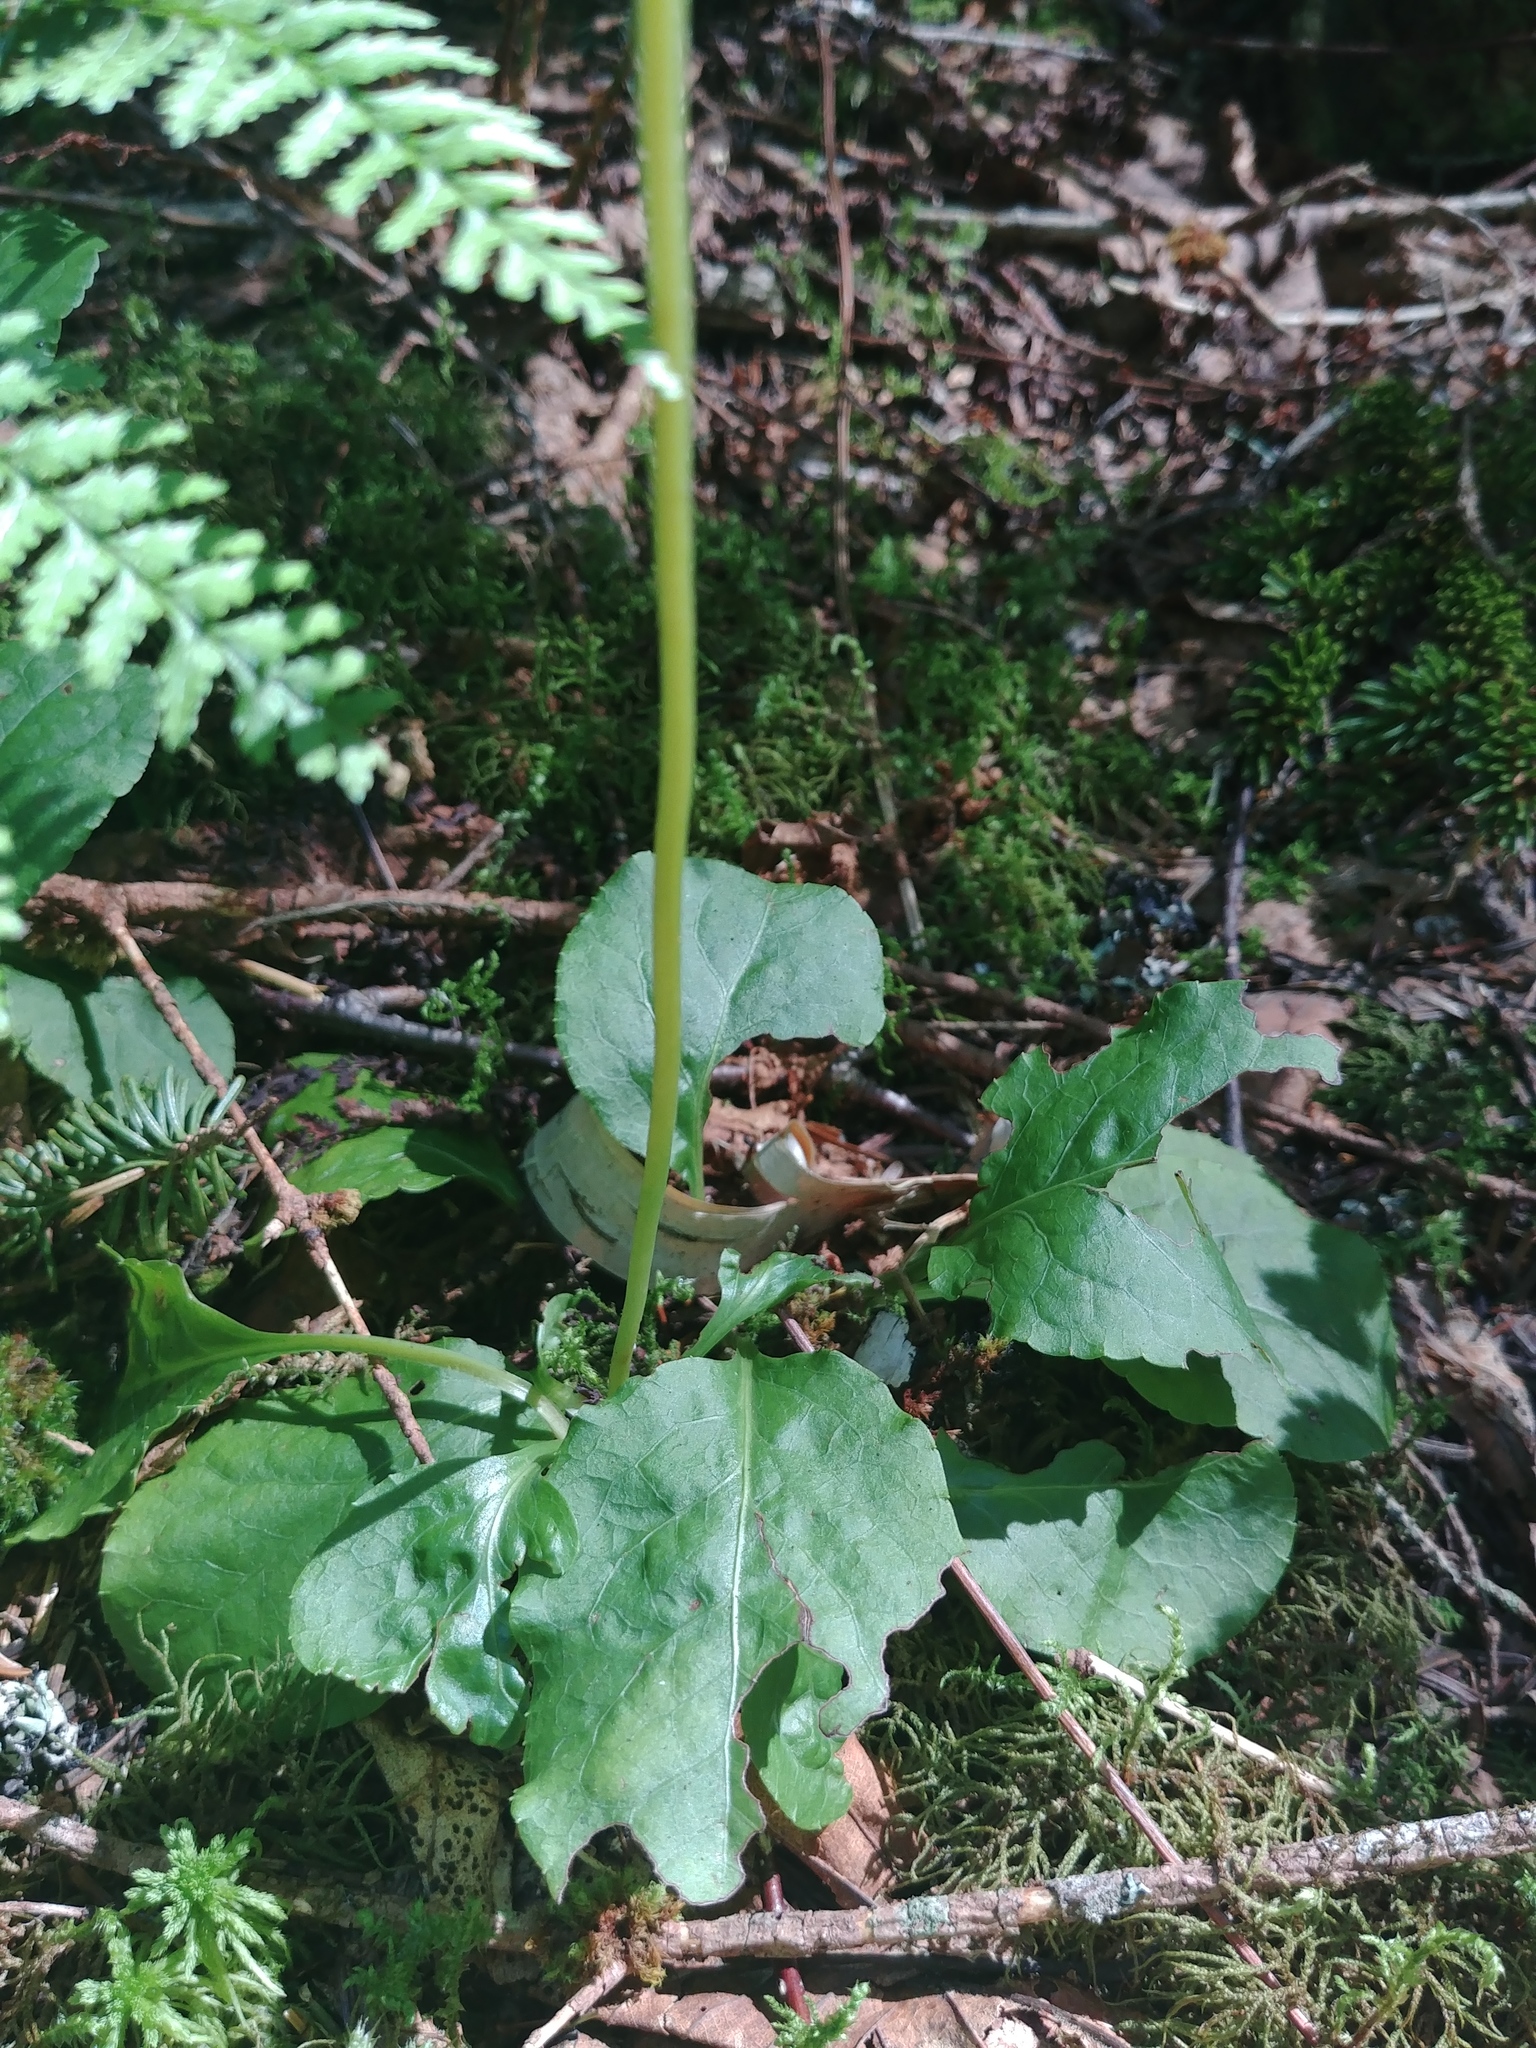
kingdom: Plantae
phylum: Tracheophyta
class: Magnoliopsida
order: Ericales
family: Ericaceae
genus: Pyrola
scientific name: Pyrola elliptica
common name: Shinleaf
